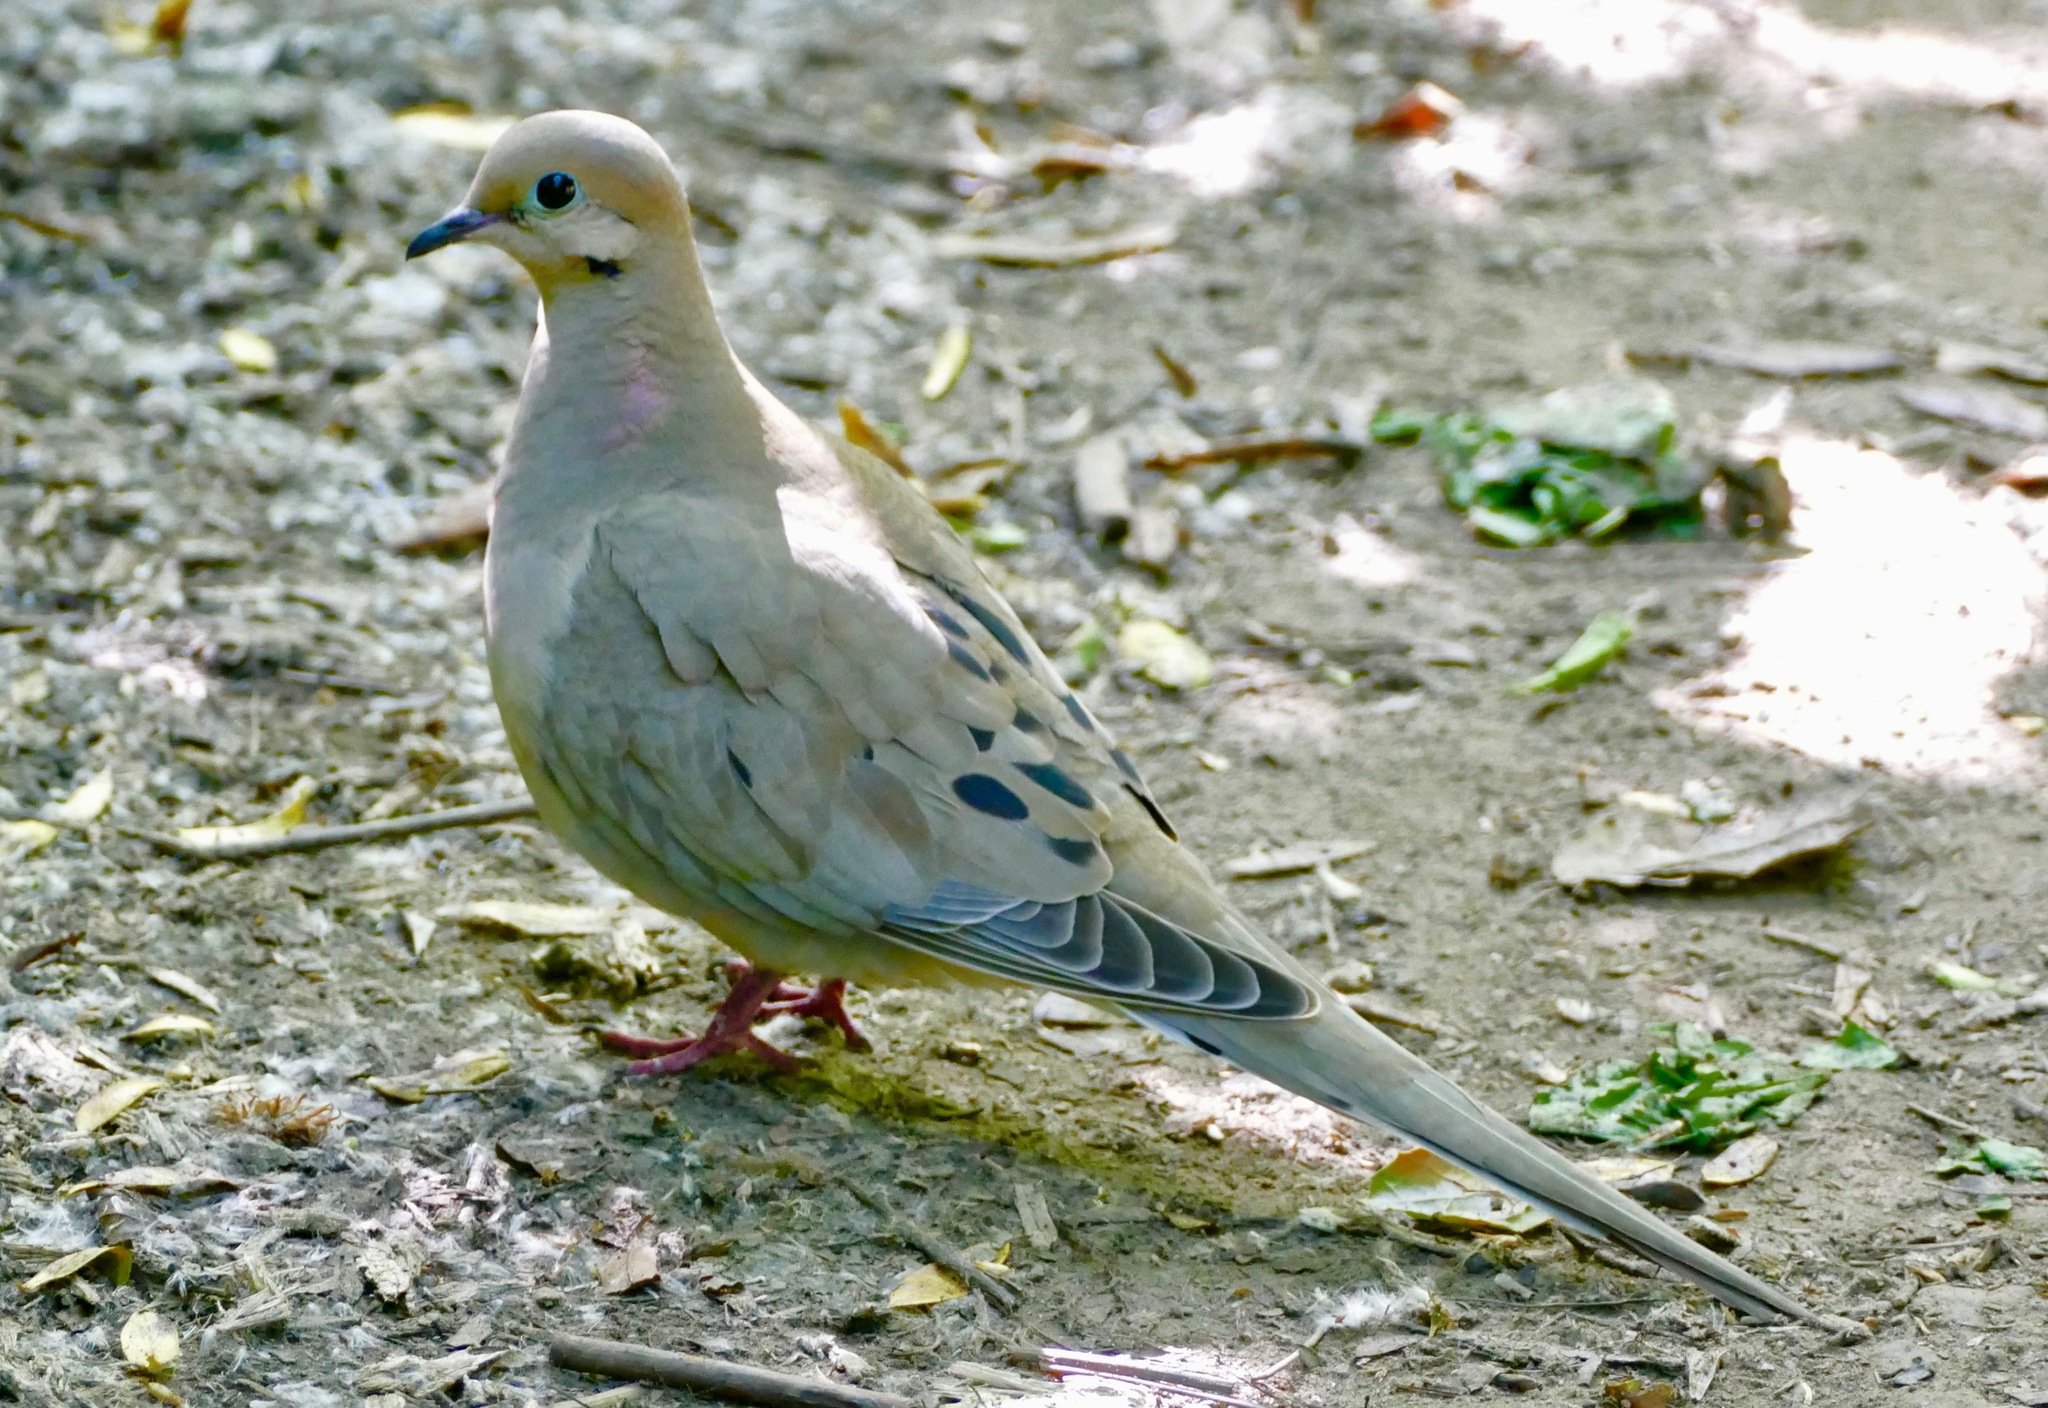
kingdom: Animalia
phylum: Chordata
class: Aves
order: Columbiformes
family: Columbidae
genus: Zenaida
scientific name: Zenaida macroura
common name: Mourning dove
